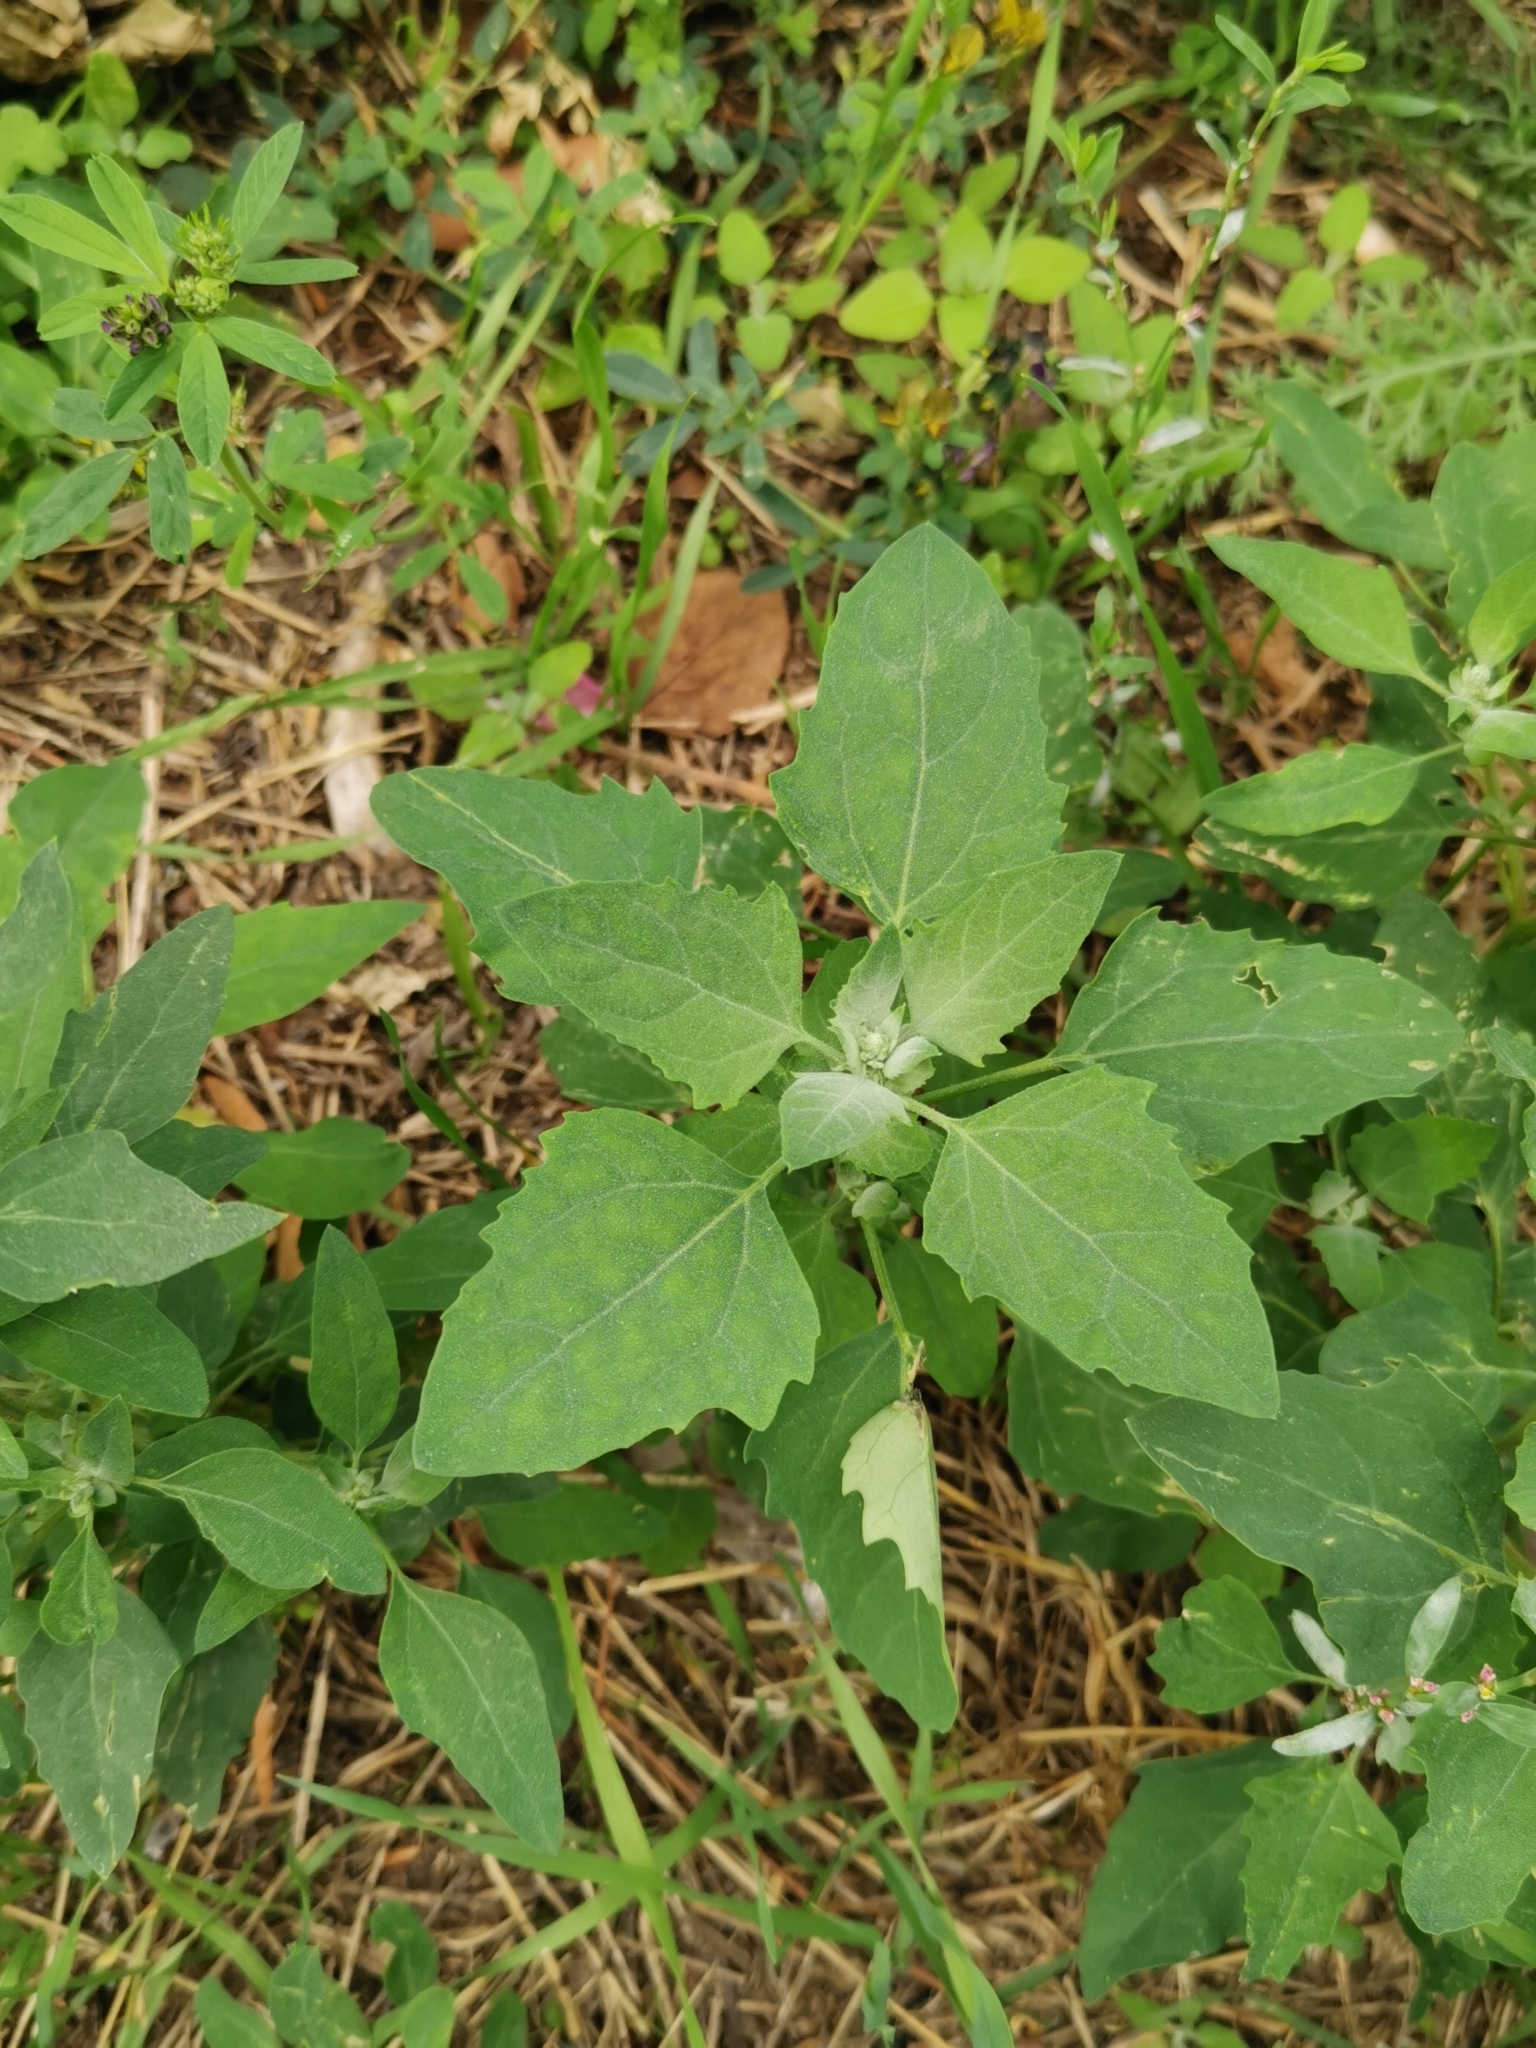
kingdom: Plantae
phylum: Tracheophyta
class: Magnoliopsida
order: Caryophyllales
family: Amaranthaceae
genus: Chenopodium
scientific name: Chenopodium album
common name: Fat-hen
